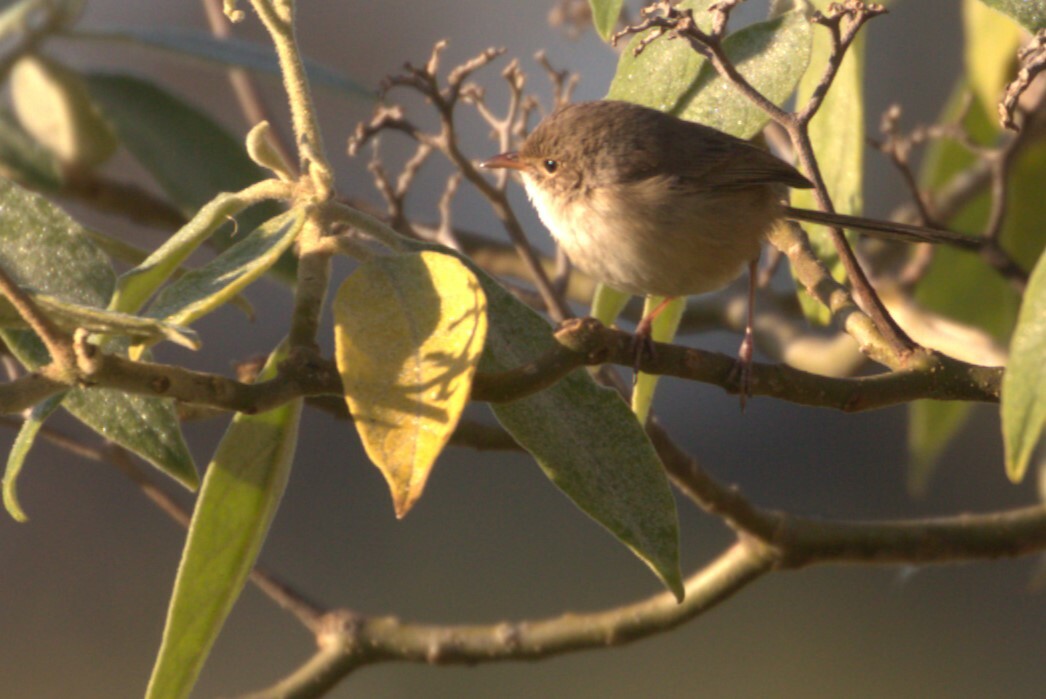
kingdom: Animalia
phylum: Chordata
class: Aves
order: Passeriformes
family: Maluridae
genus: Malurus
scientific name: Malurus melanocephalus
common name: Red-backed fairywren
